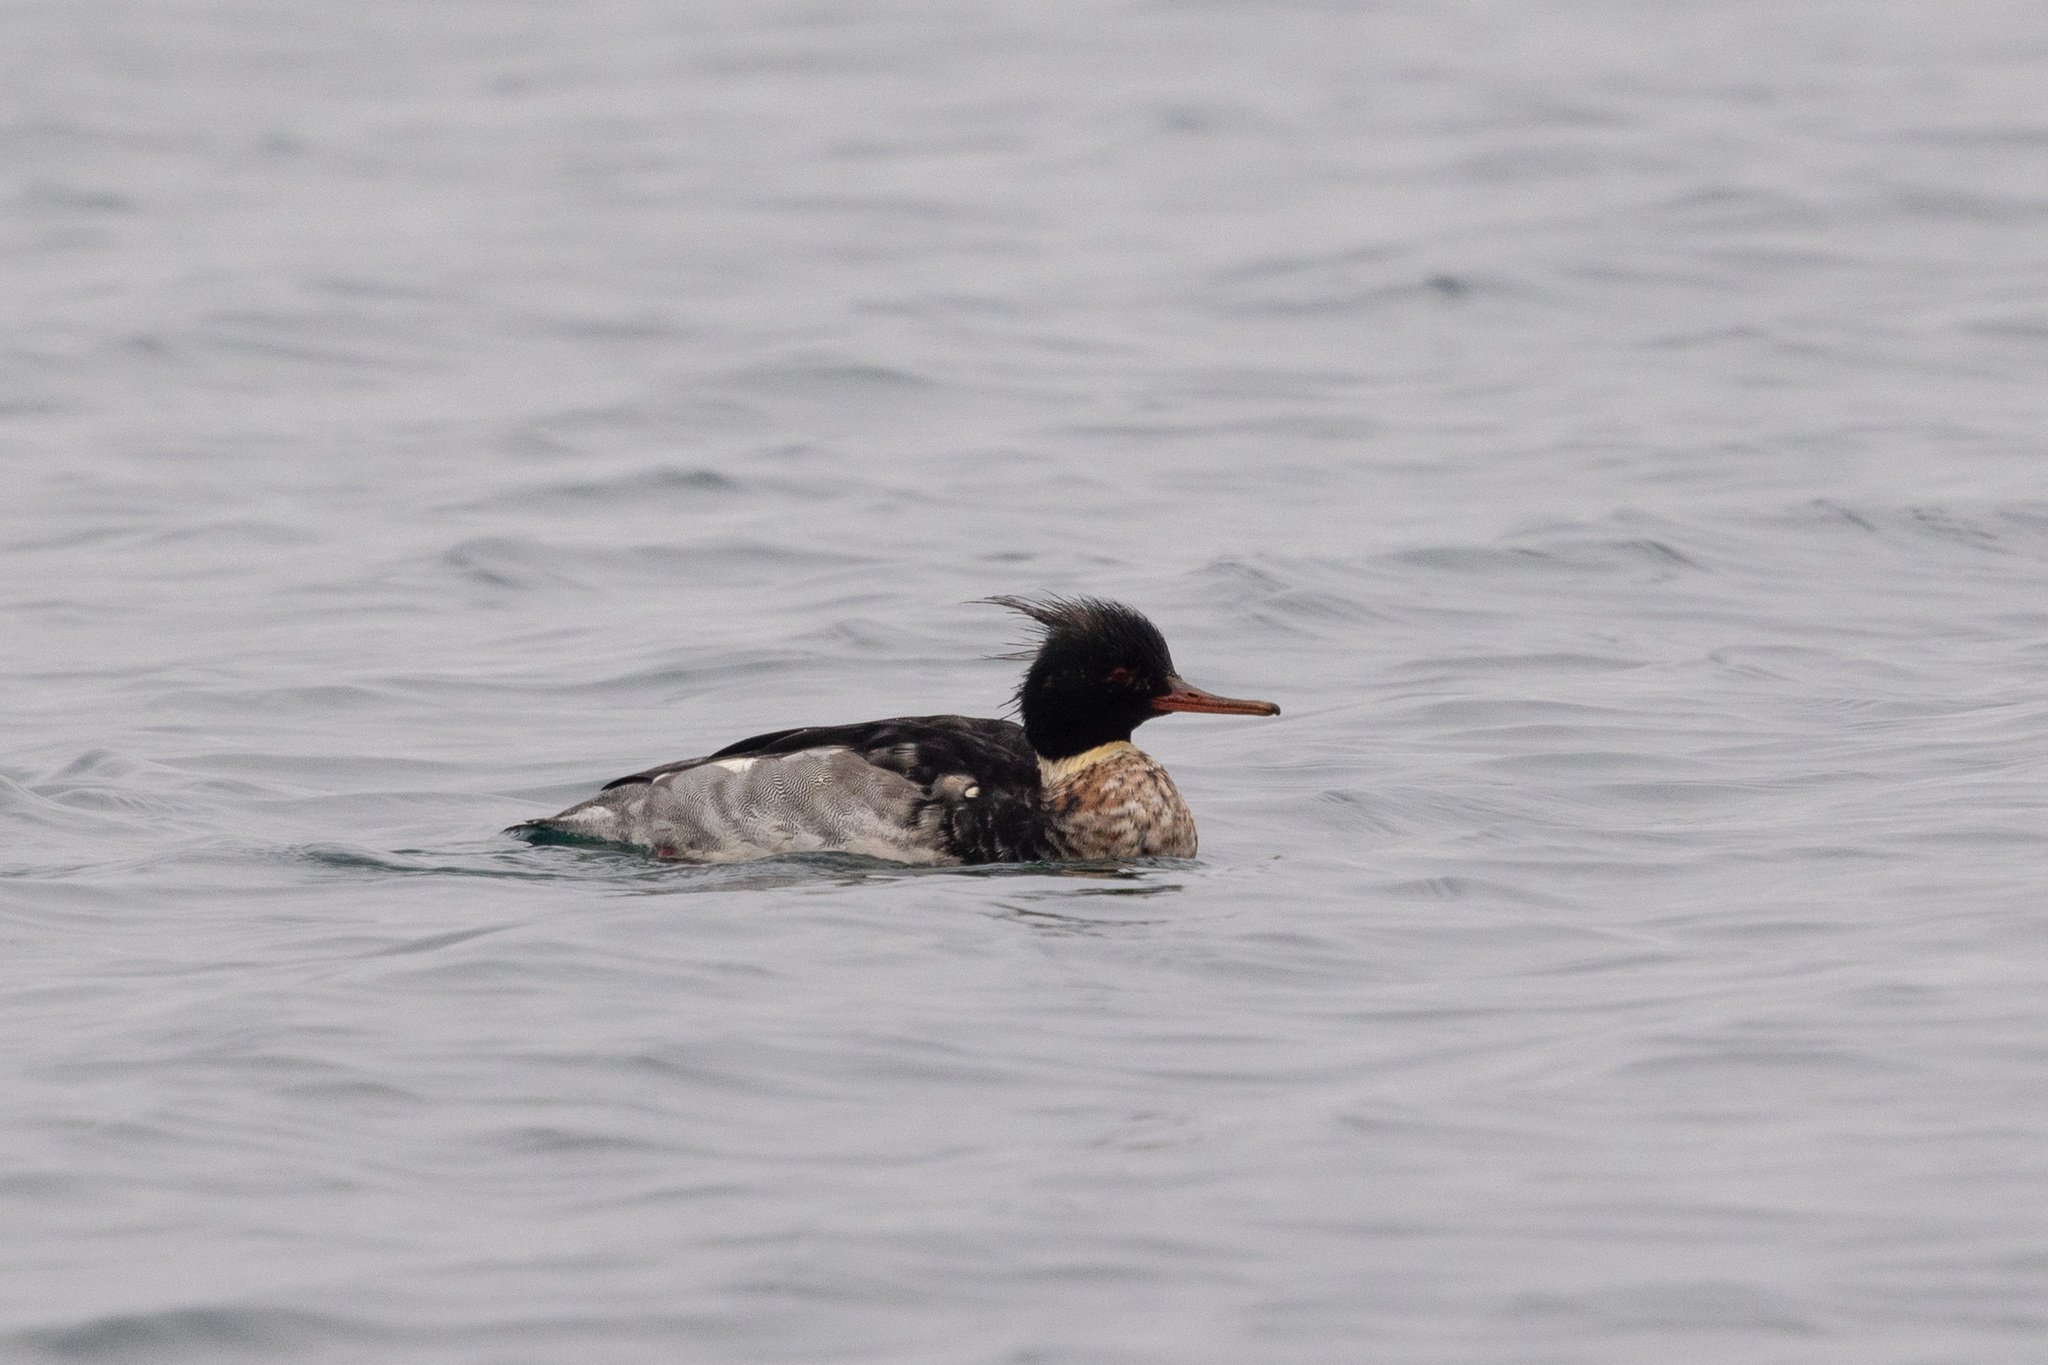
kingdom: Animalia
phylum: Chordata
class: Aves
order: Anseriformes
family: Anatidae
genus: Mergus
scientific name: Mergus serrator
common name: Red-breasted merganser
